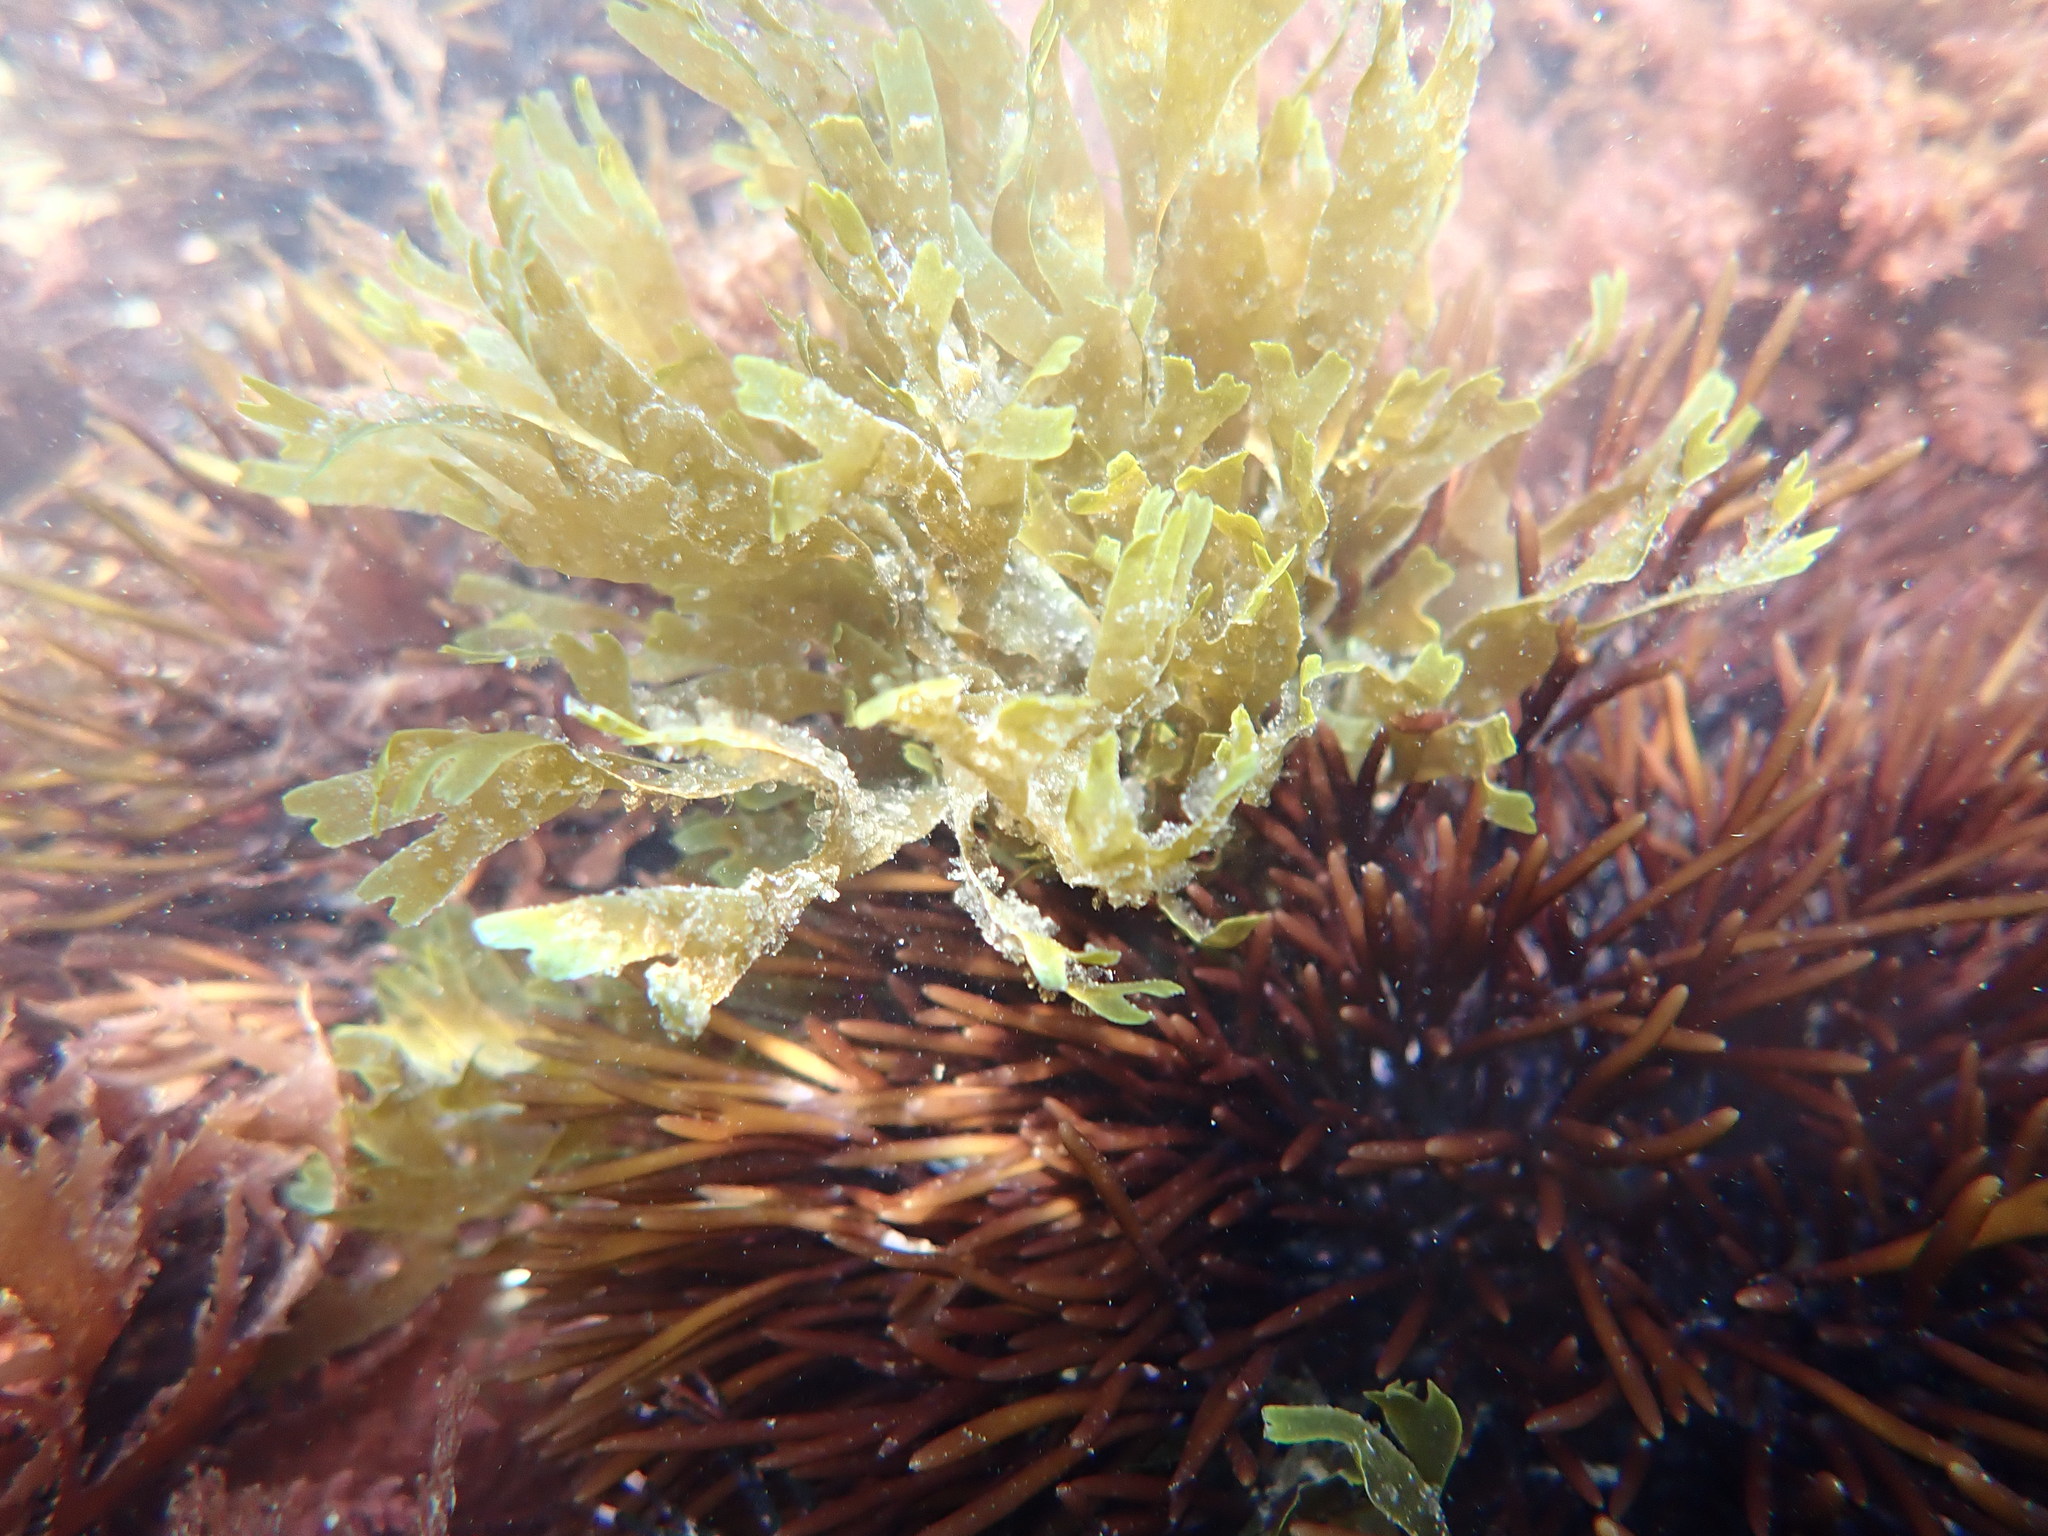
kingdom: Chromista
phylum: Ochrophyta
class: Phaeophyceae
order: Dictyotales
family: Dictyotaceae
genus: Dictyota
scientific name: Dictyota dichotoma
